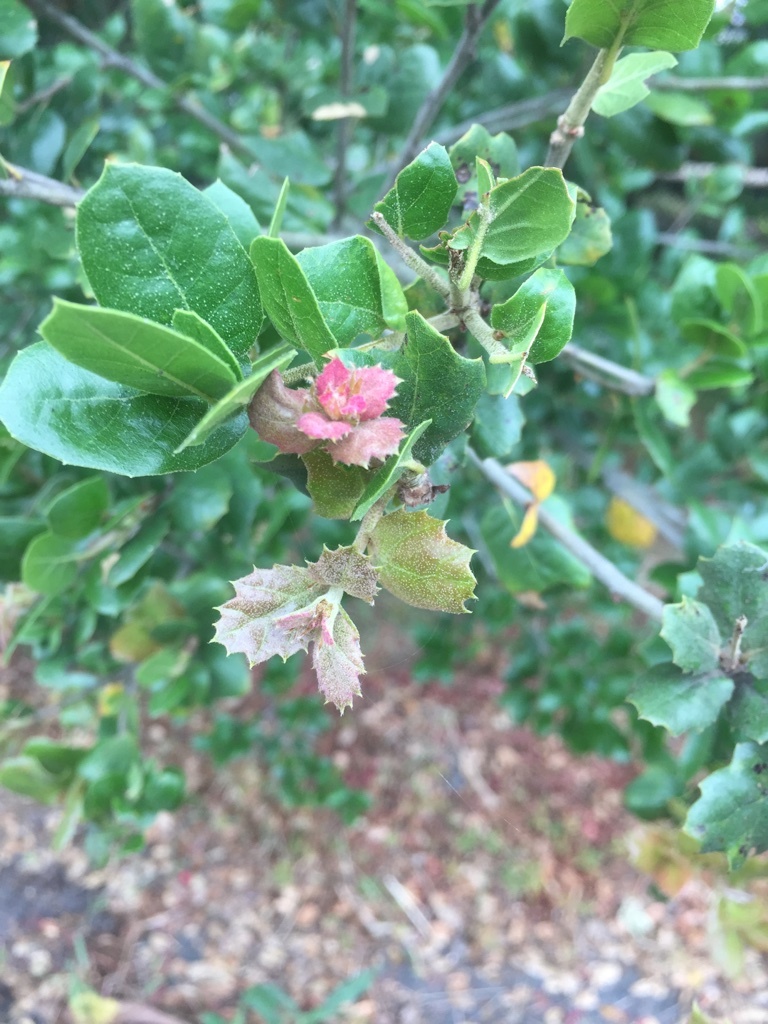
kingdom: Plantae
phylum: Tracheophyta
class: Magnoliopsida
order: Fagales
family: Fagaceae
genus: Quercus
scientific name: Quercus agrifolia
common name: California live oak
